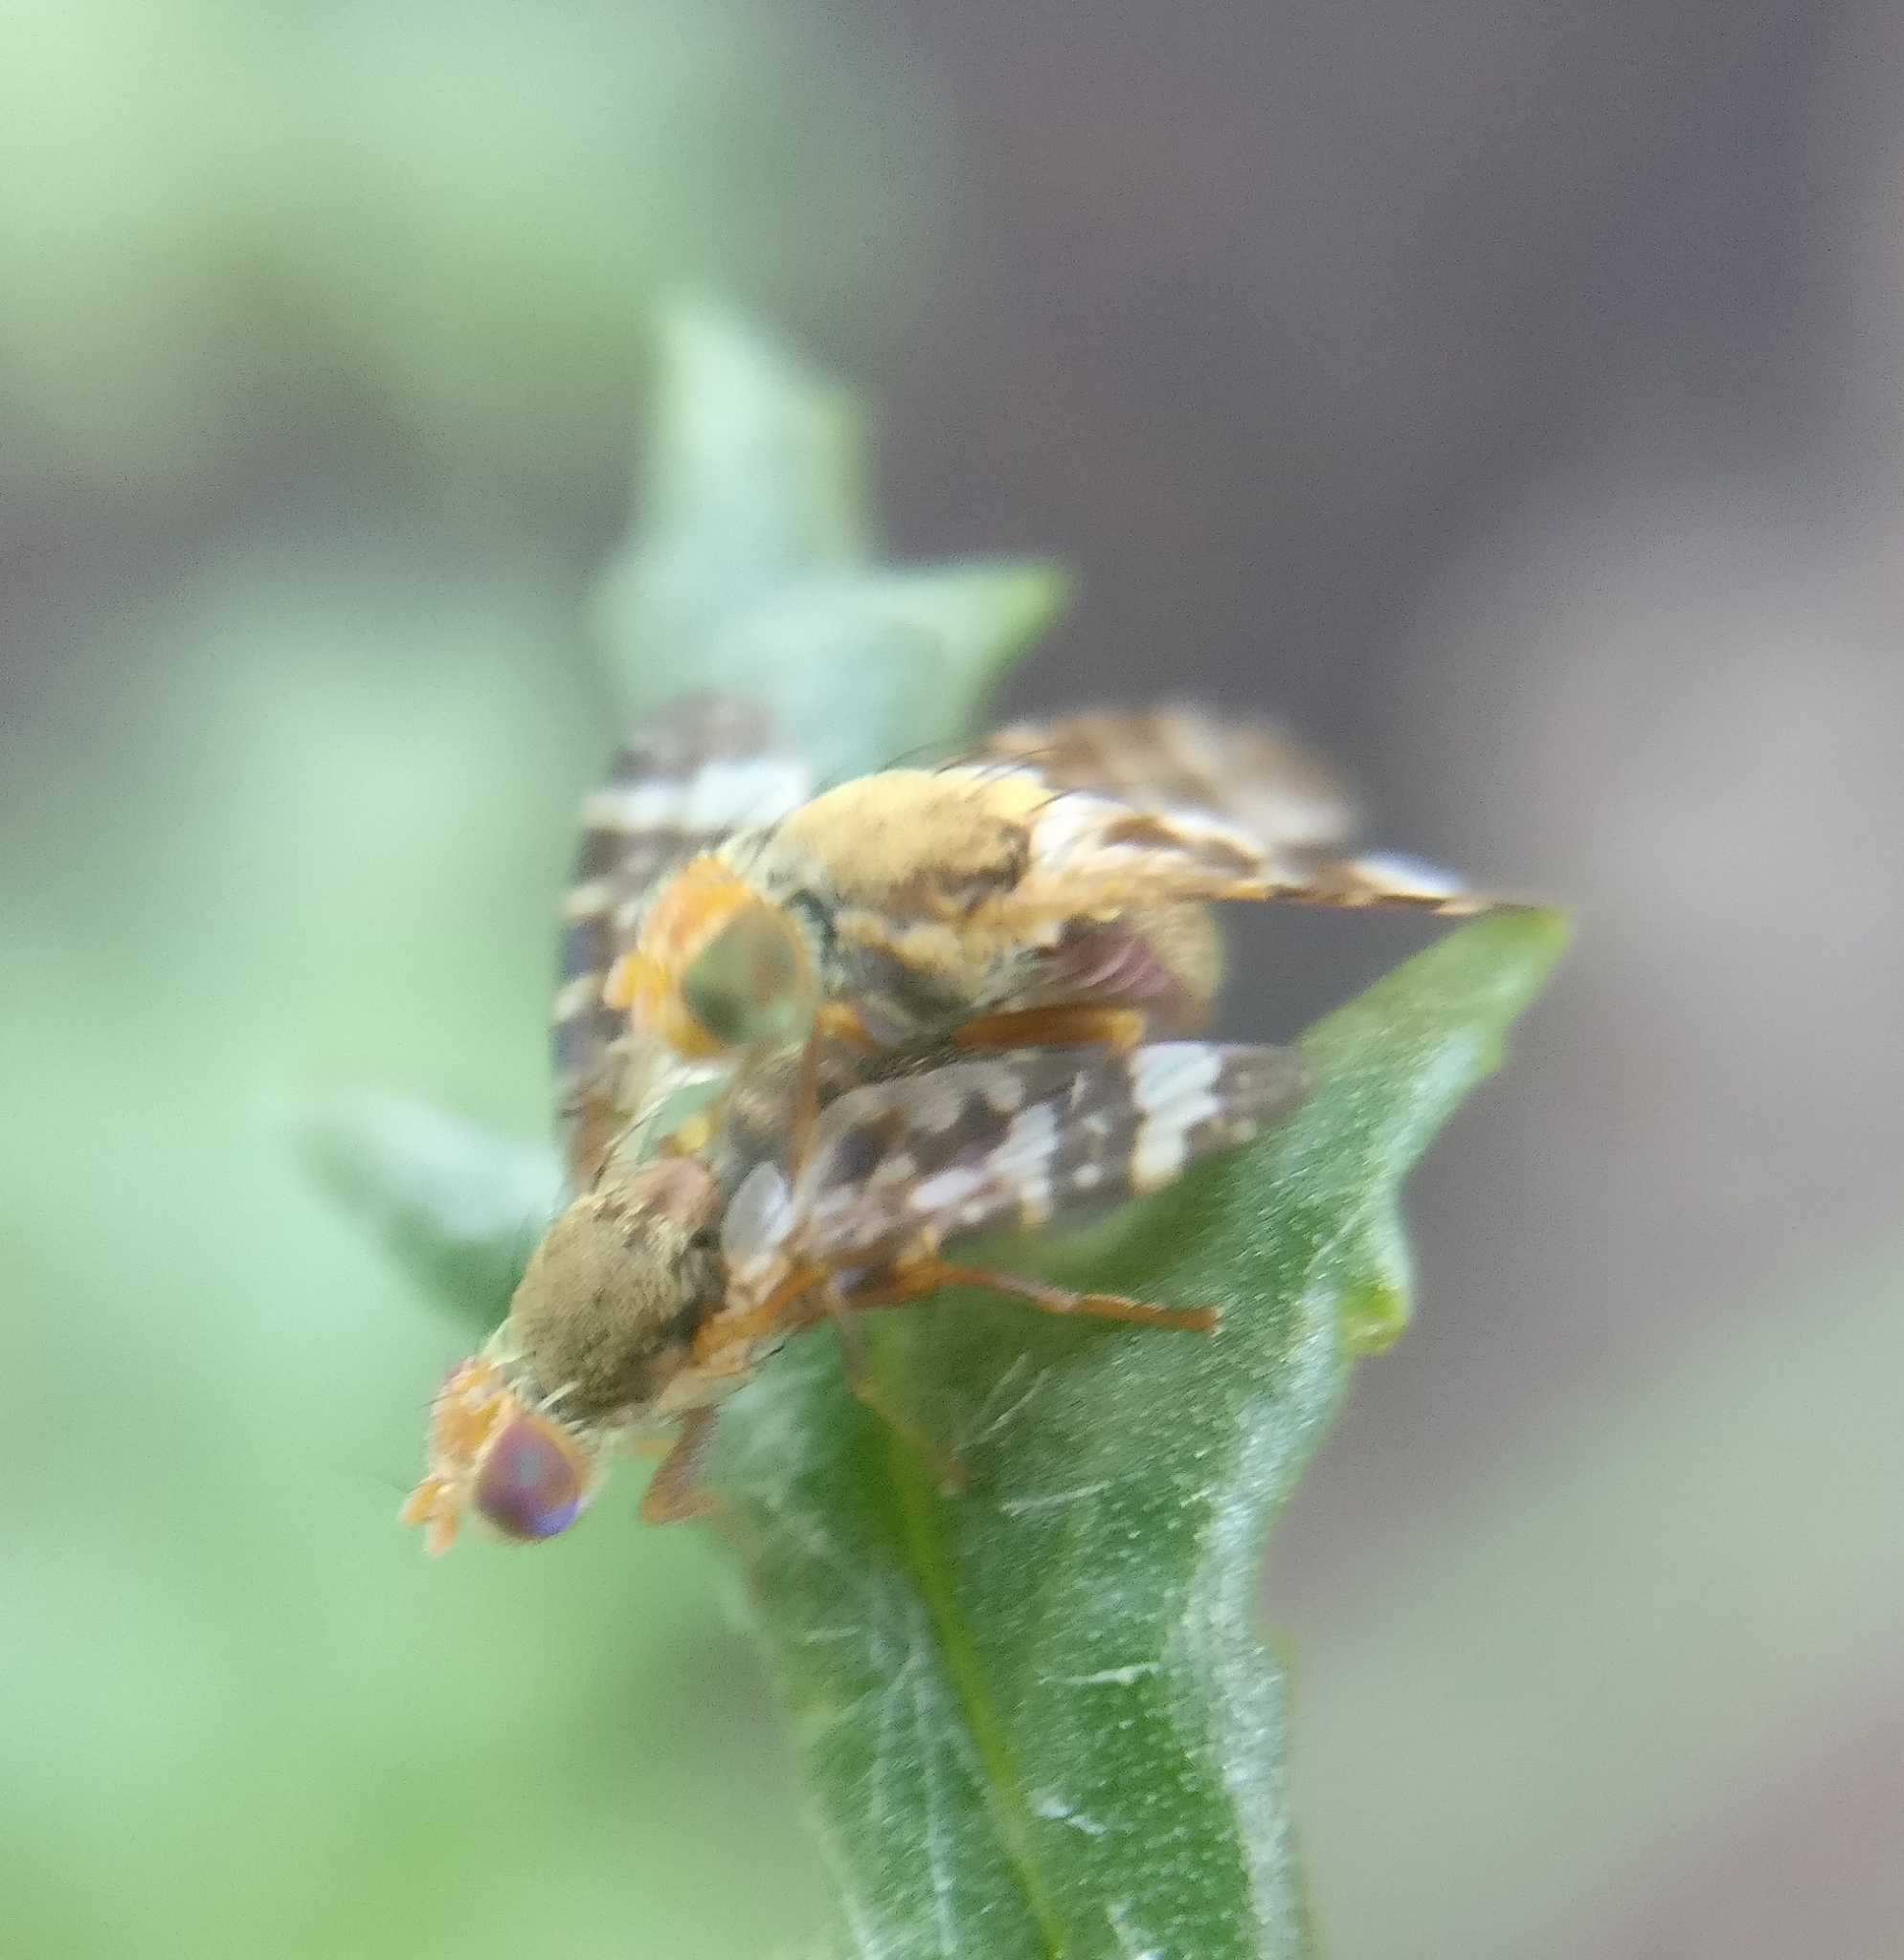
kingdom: Animalia
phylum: Arthropoda
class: Insecta
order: Diptera
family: Tephritidae
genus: Sphenella
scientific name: Sphenella
